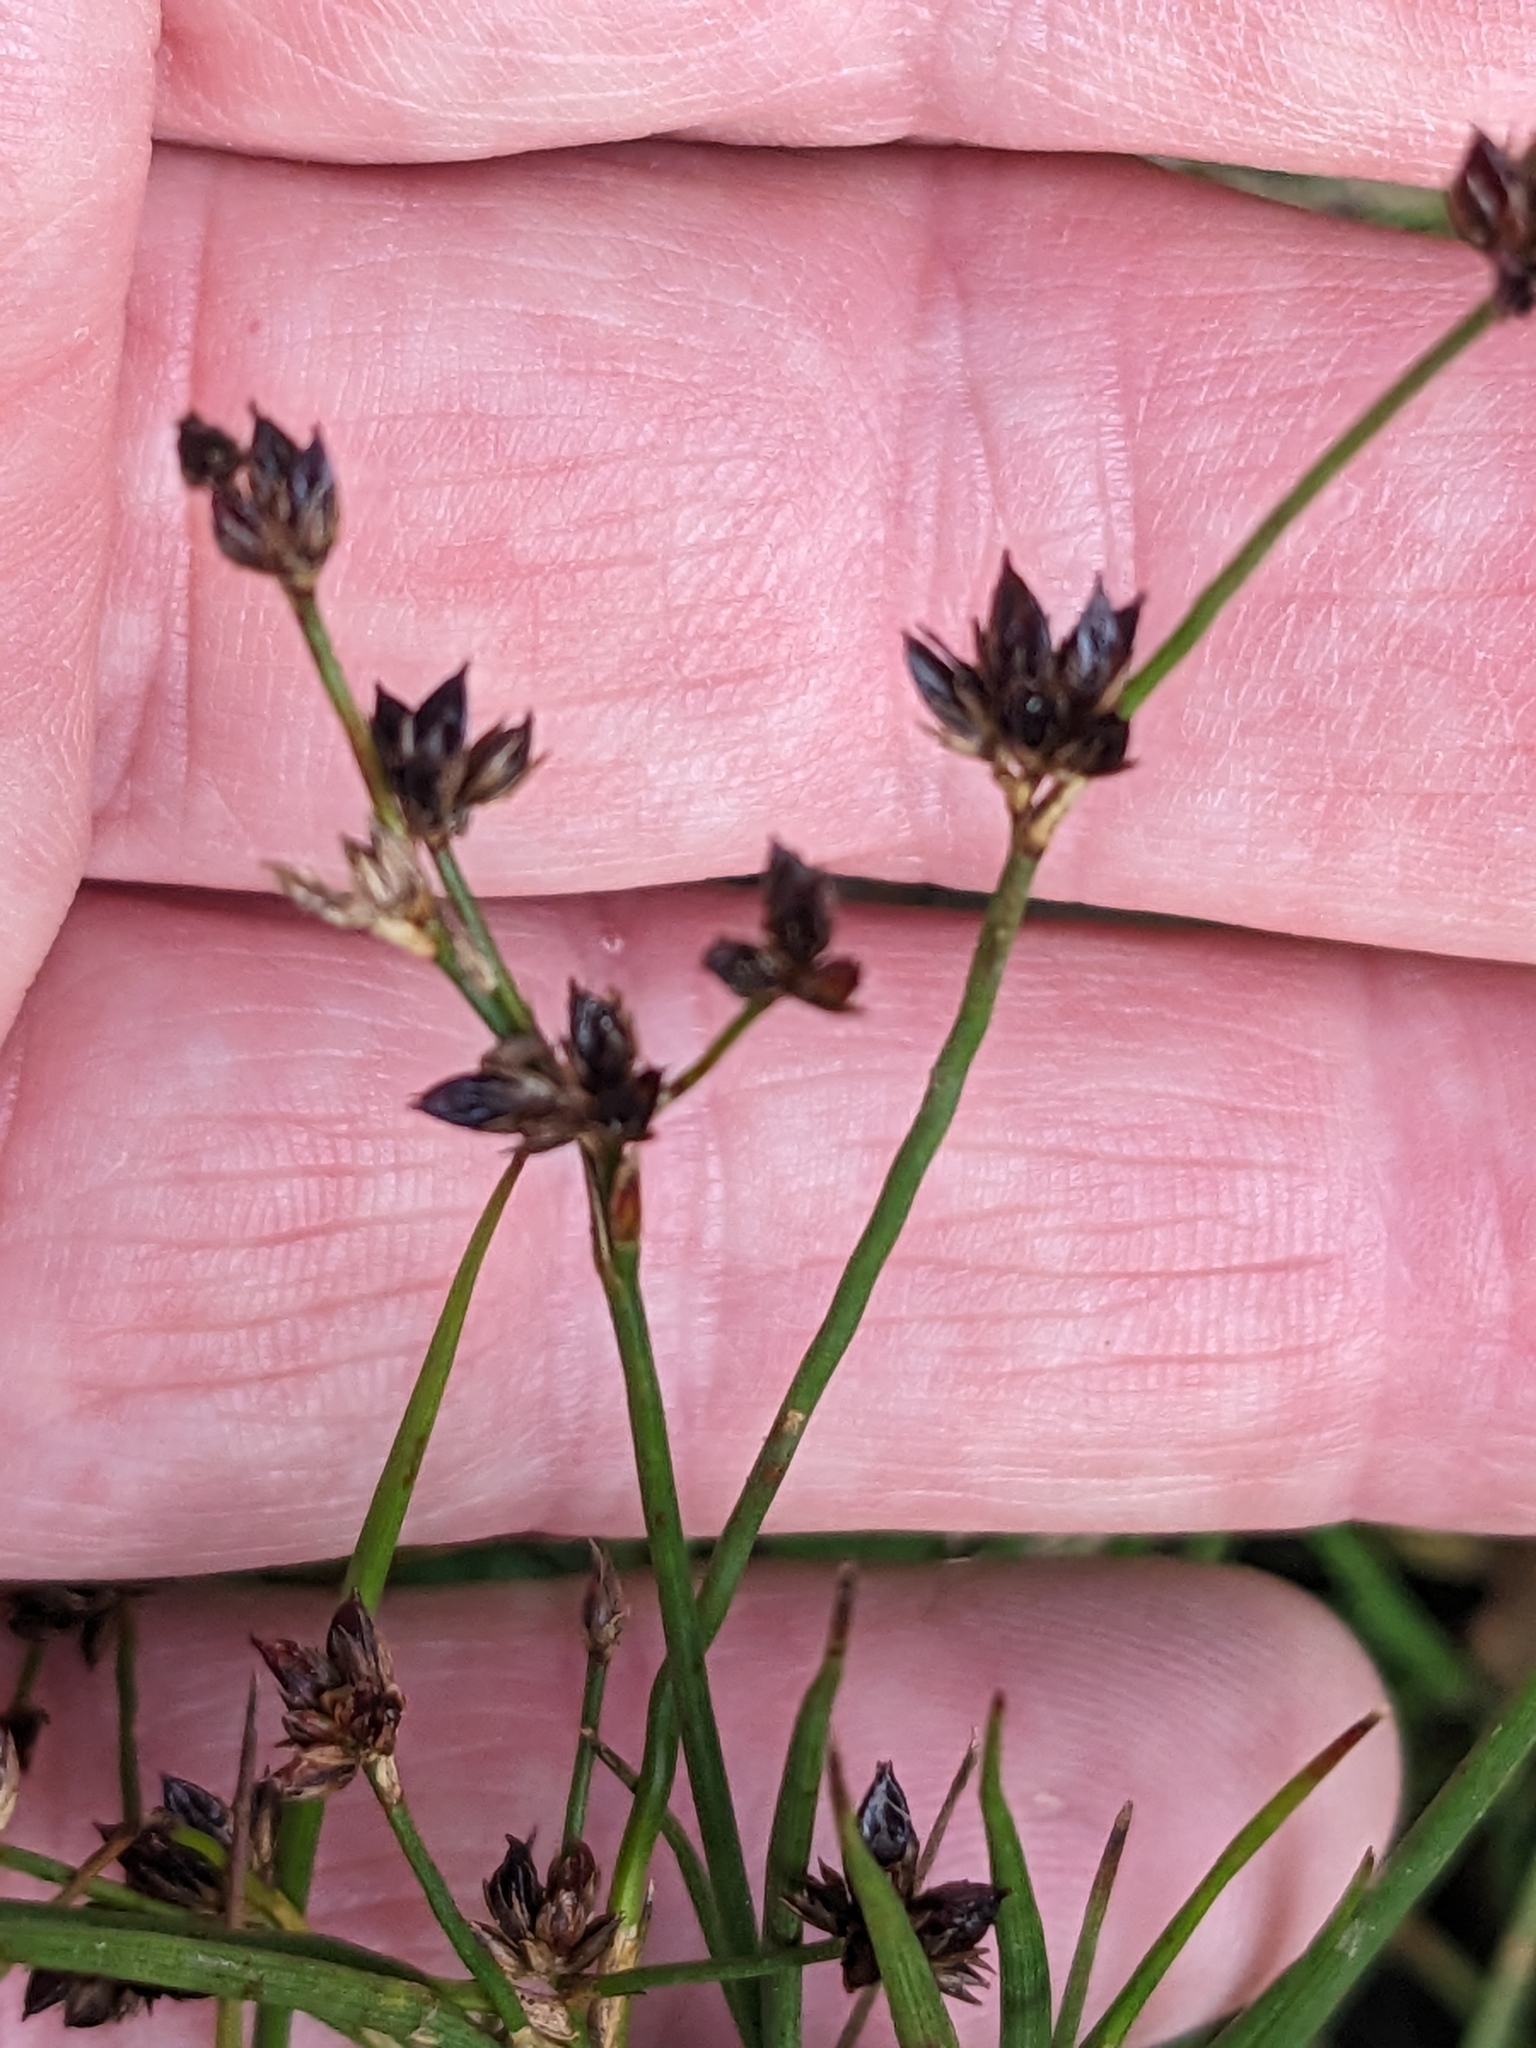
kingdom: Plantae
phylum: Tracheophyta
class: Liliopsida
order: Poales
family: Juncaceae
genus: Juncus
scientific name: Juncus articulatus
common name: Jointed rush
